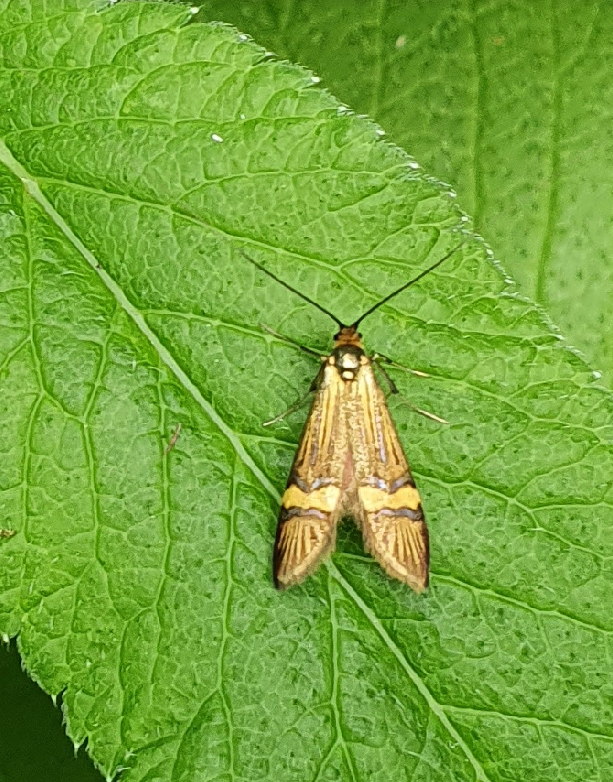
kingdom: Animalia
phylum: Arthropoda
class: Insecta
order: Lepidoptera
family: Adelidae
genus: Nemophora
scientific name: Nemophora degeerella
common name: Yellow-barred long-horn
